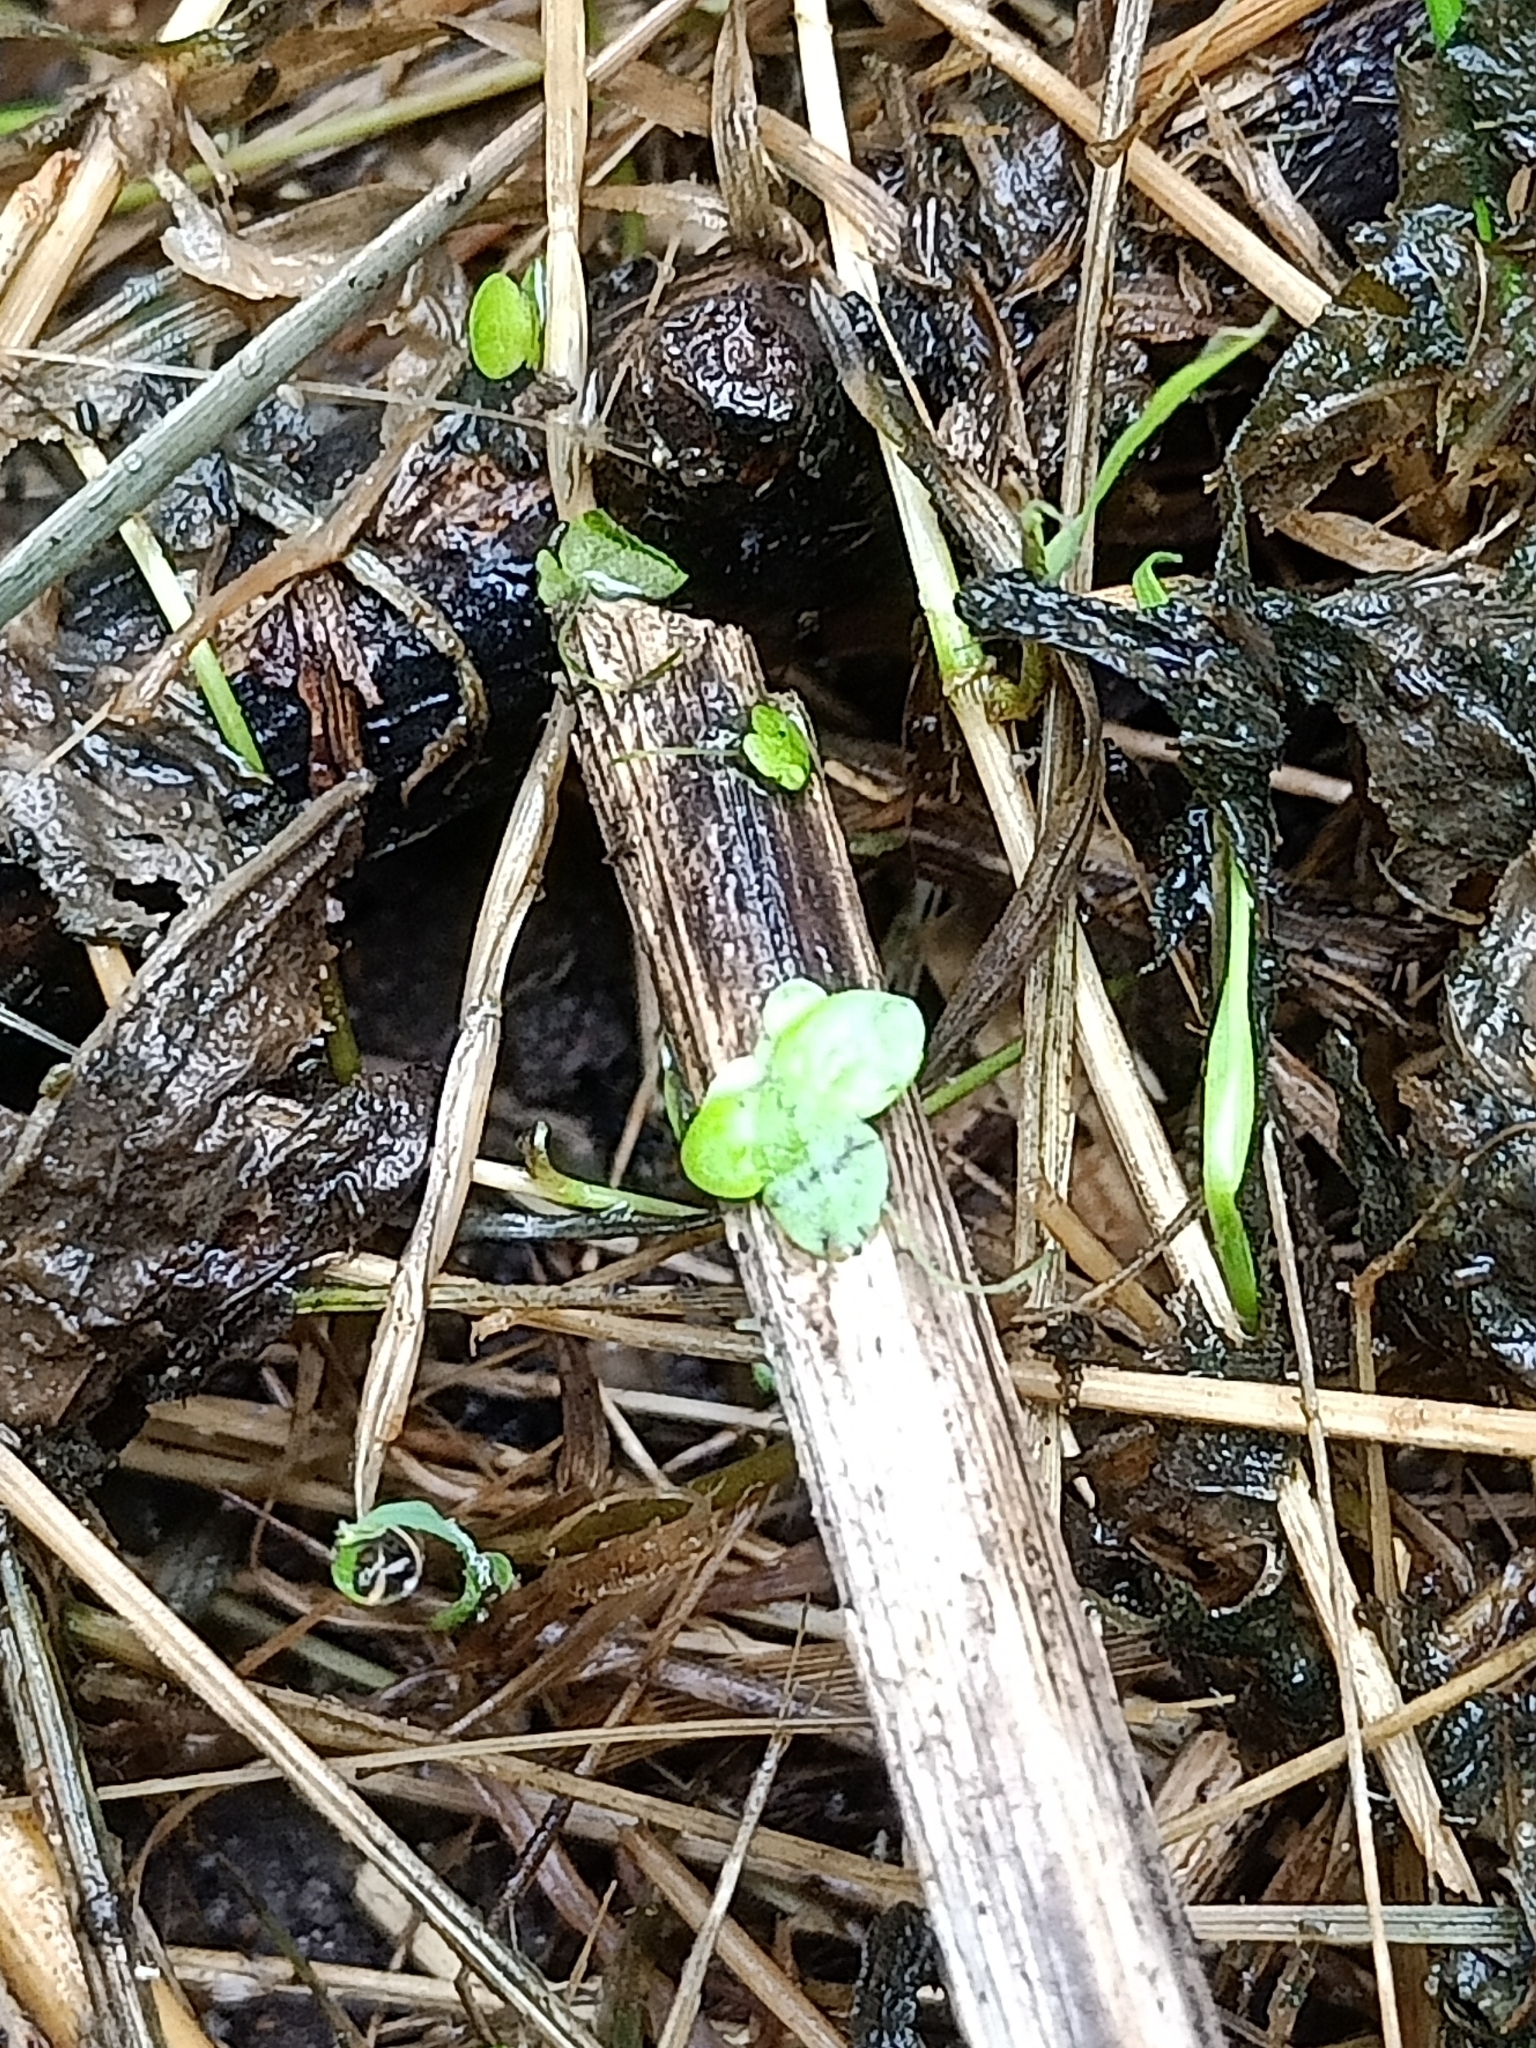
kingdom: Plantae
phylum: Tracheophyta
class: Liliopsida
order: Alismatales
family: Araceae
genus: Lemna
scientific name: Lemna minor
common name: Common duckweed
